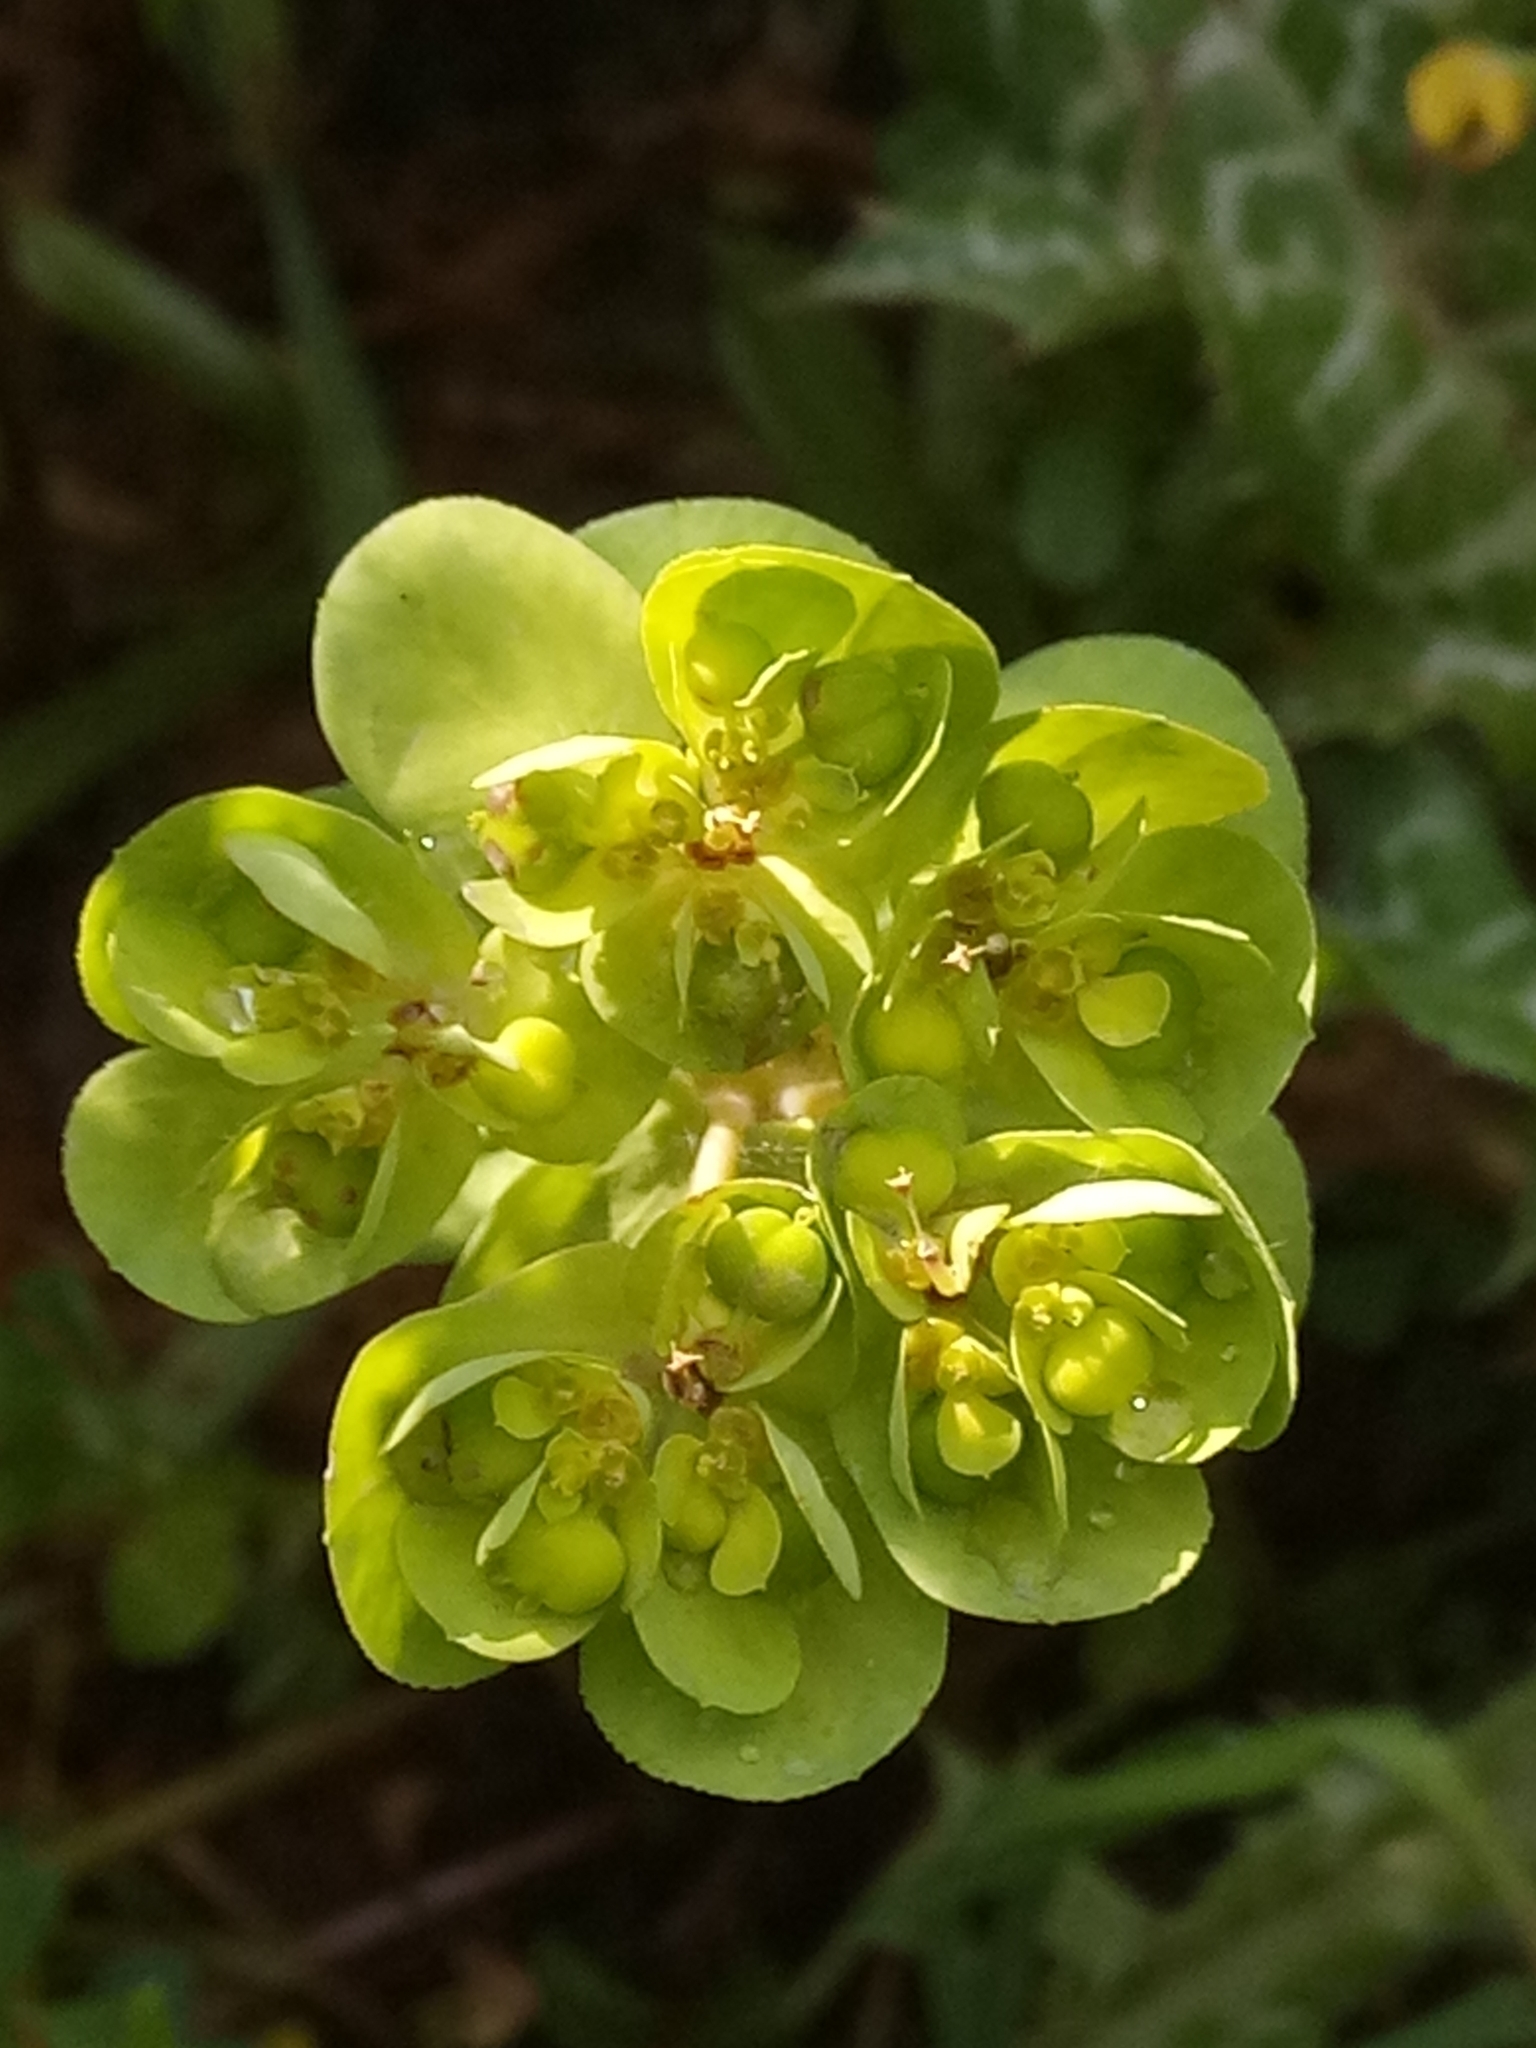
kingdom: Plantae
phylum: Tracheophyta
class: Magnoliopsida
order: Malpighiales
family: Euphorbiaceae
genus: Euphorbia
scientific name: Euphorbia helioscopia
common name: Sun spurge
